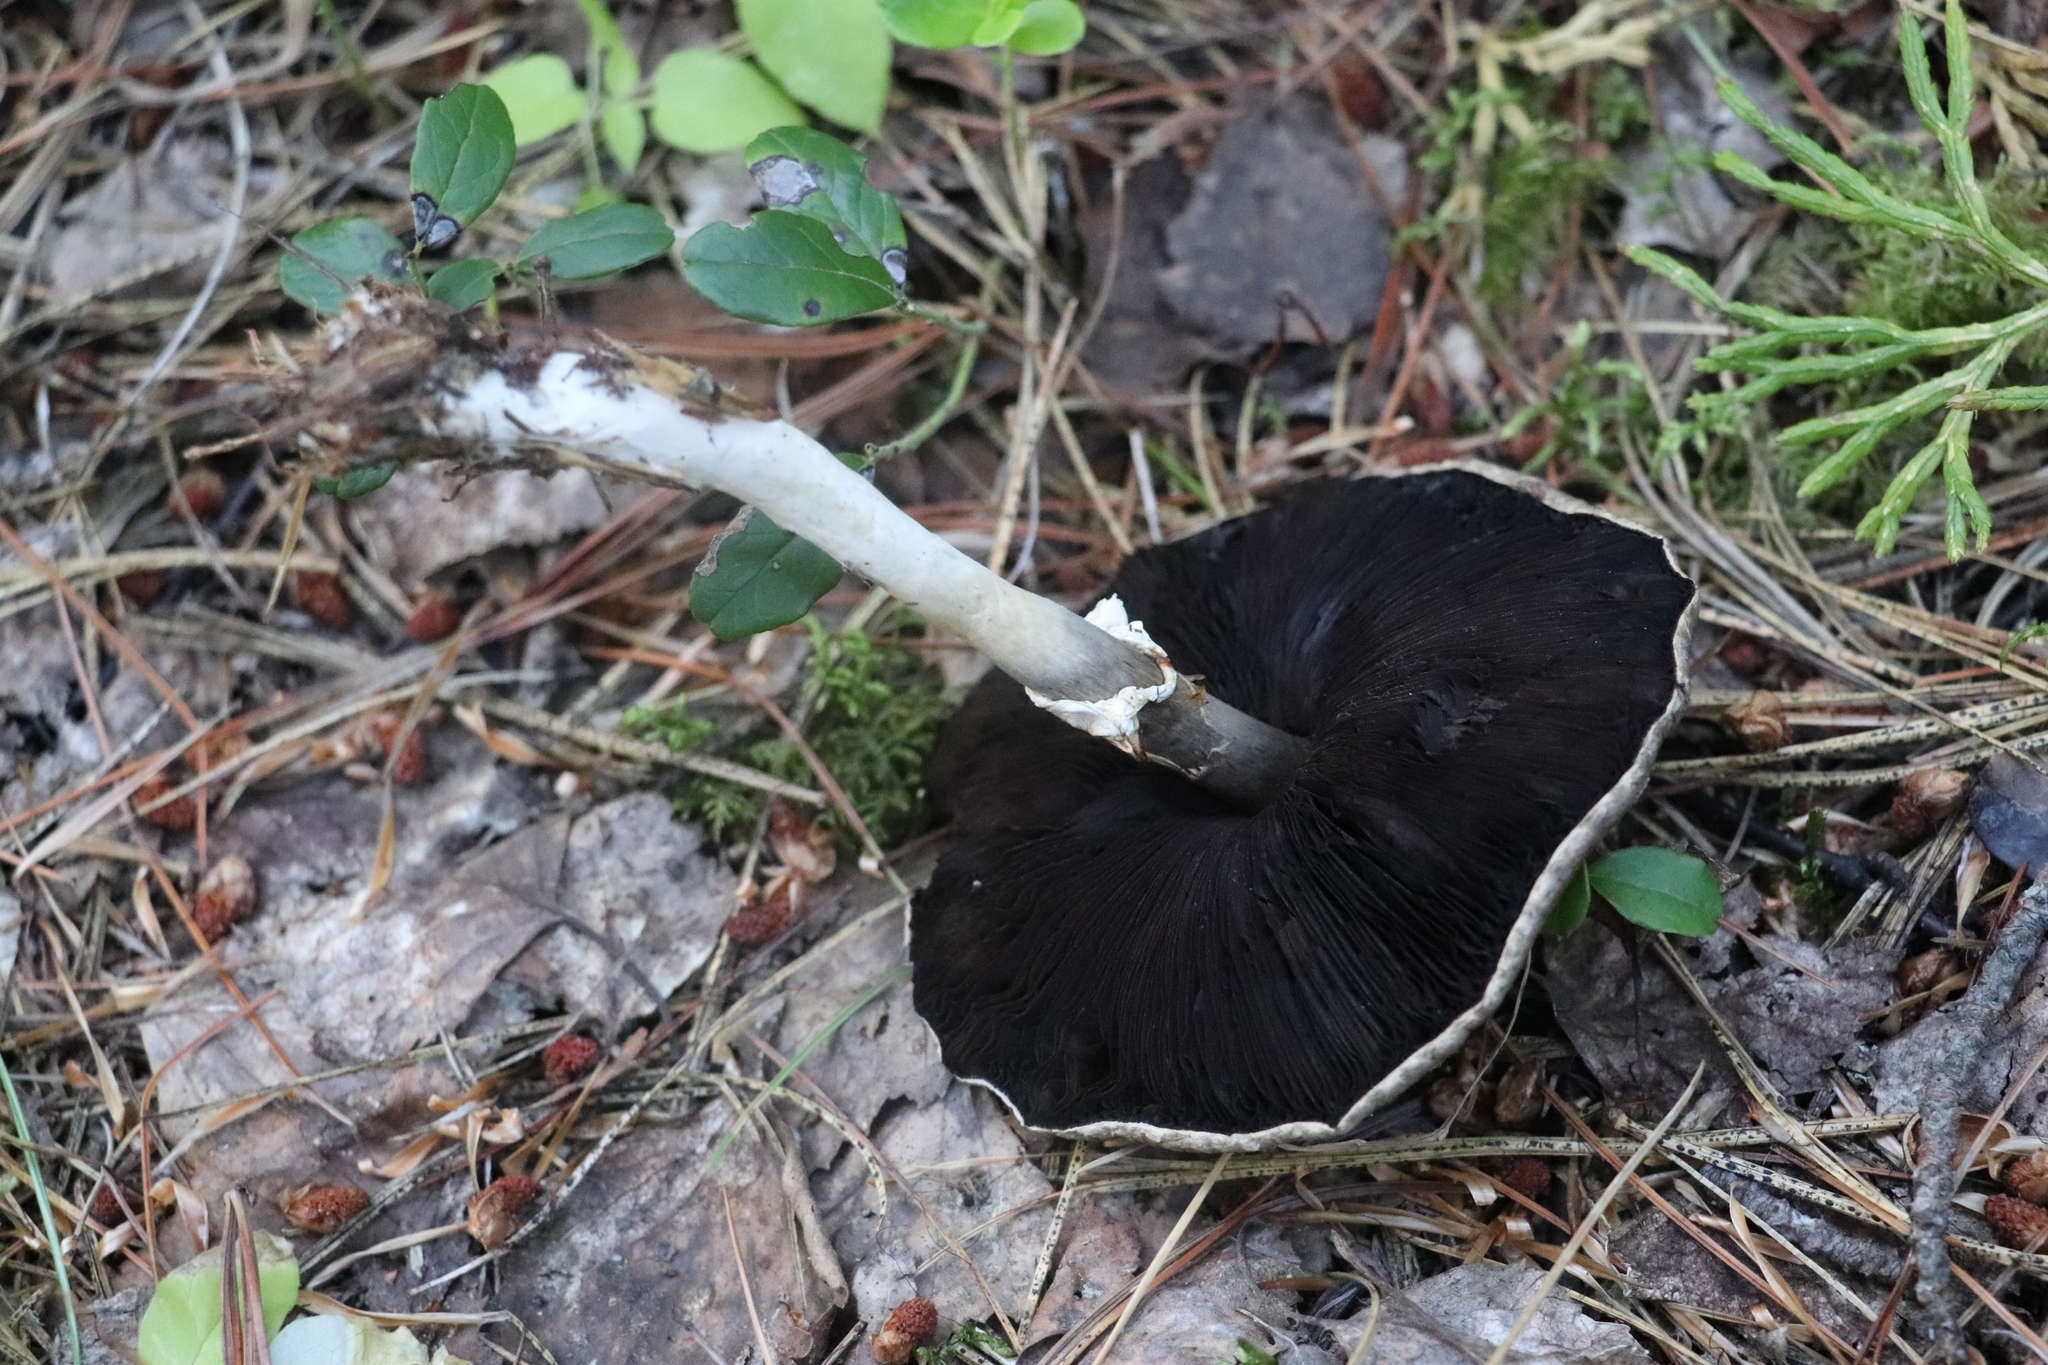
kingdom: Fungi
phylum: Basidiomycota
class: Agaricomycetes
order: Agaricales
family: Agaricaceae
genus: Agaricus
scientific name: Agaricus sylvicola
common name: Wood mushroom
